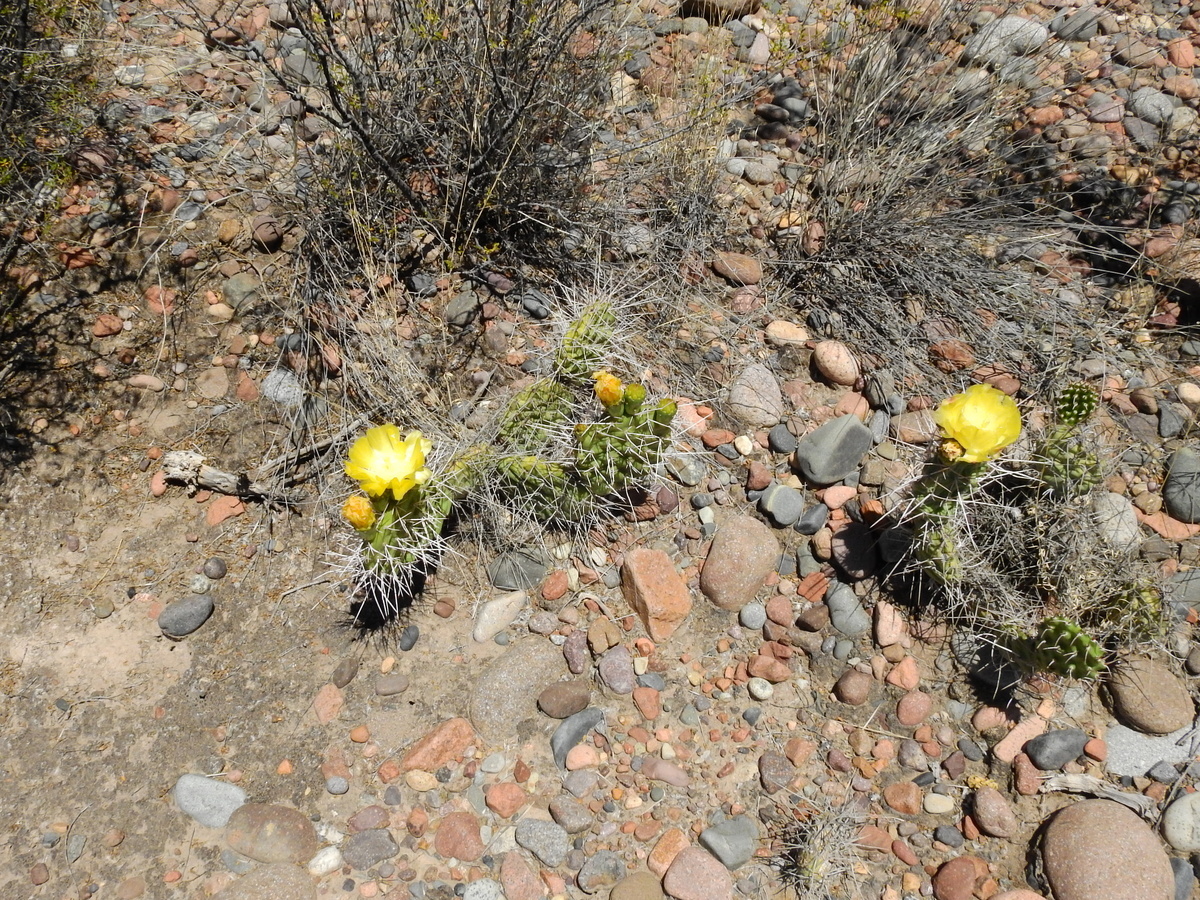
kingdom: Plantae
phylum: Tracheophyta
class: Magnoliopsida
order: Caryophyllales
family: Cactaceae
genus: Opuntia
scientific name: Opuntia sulphurea
